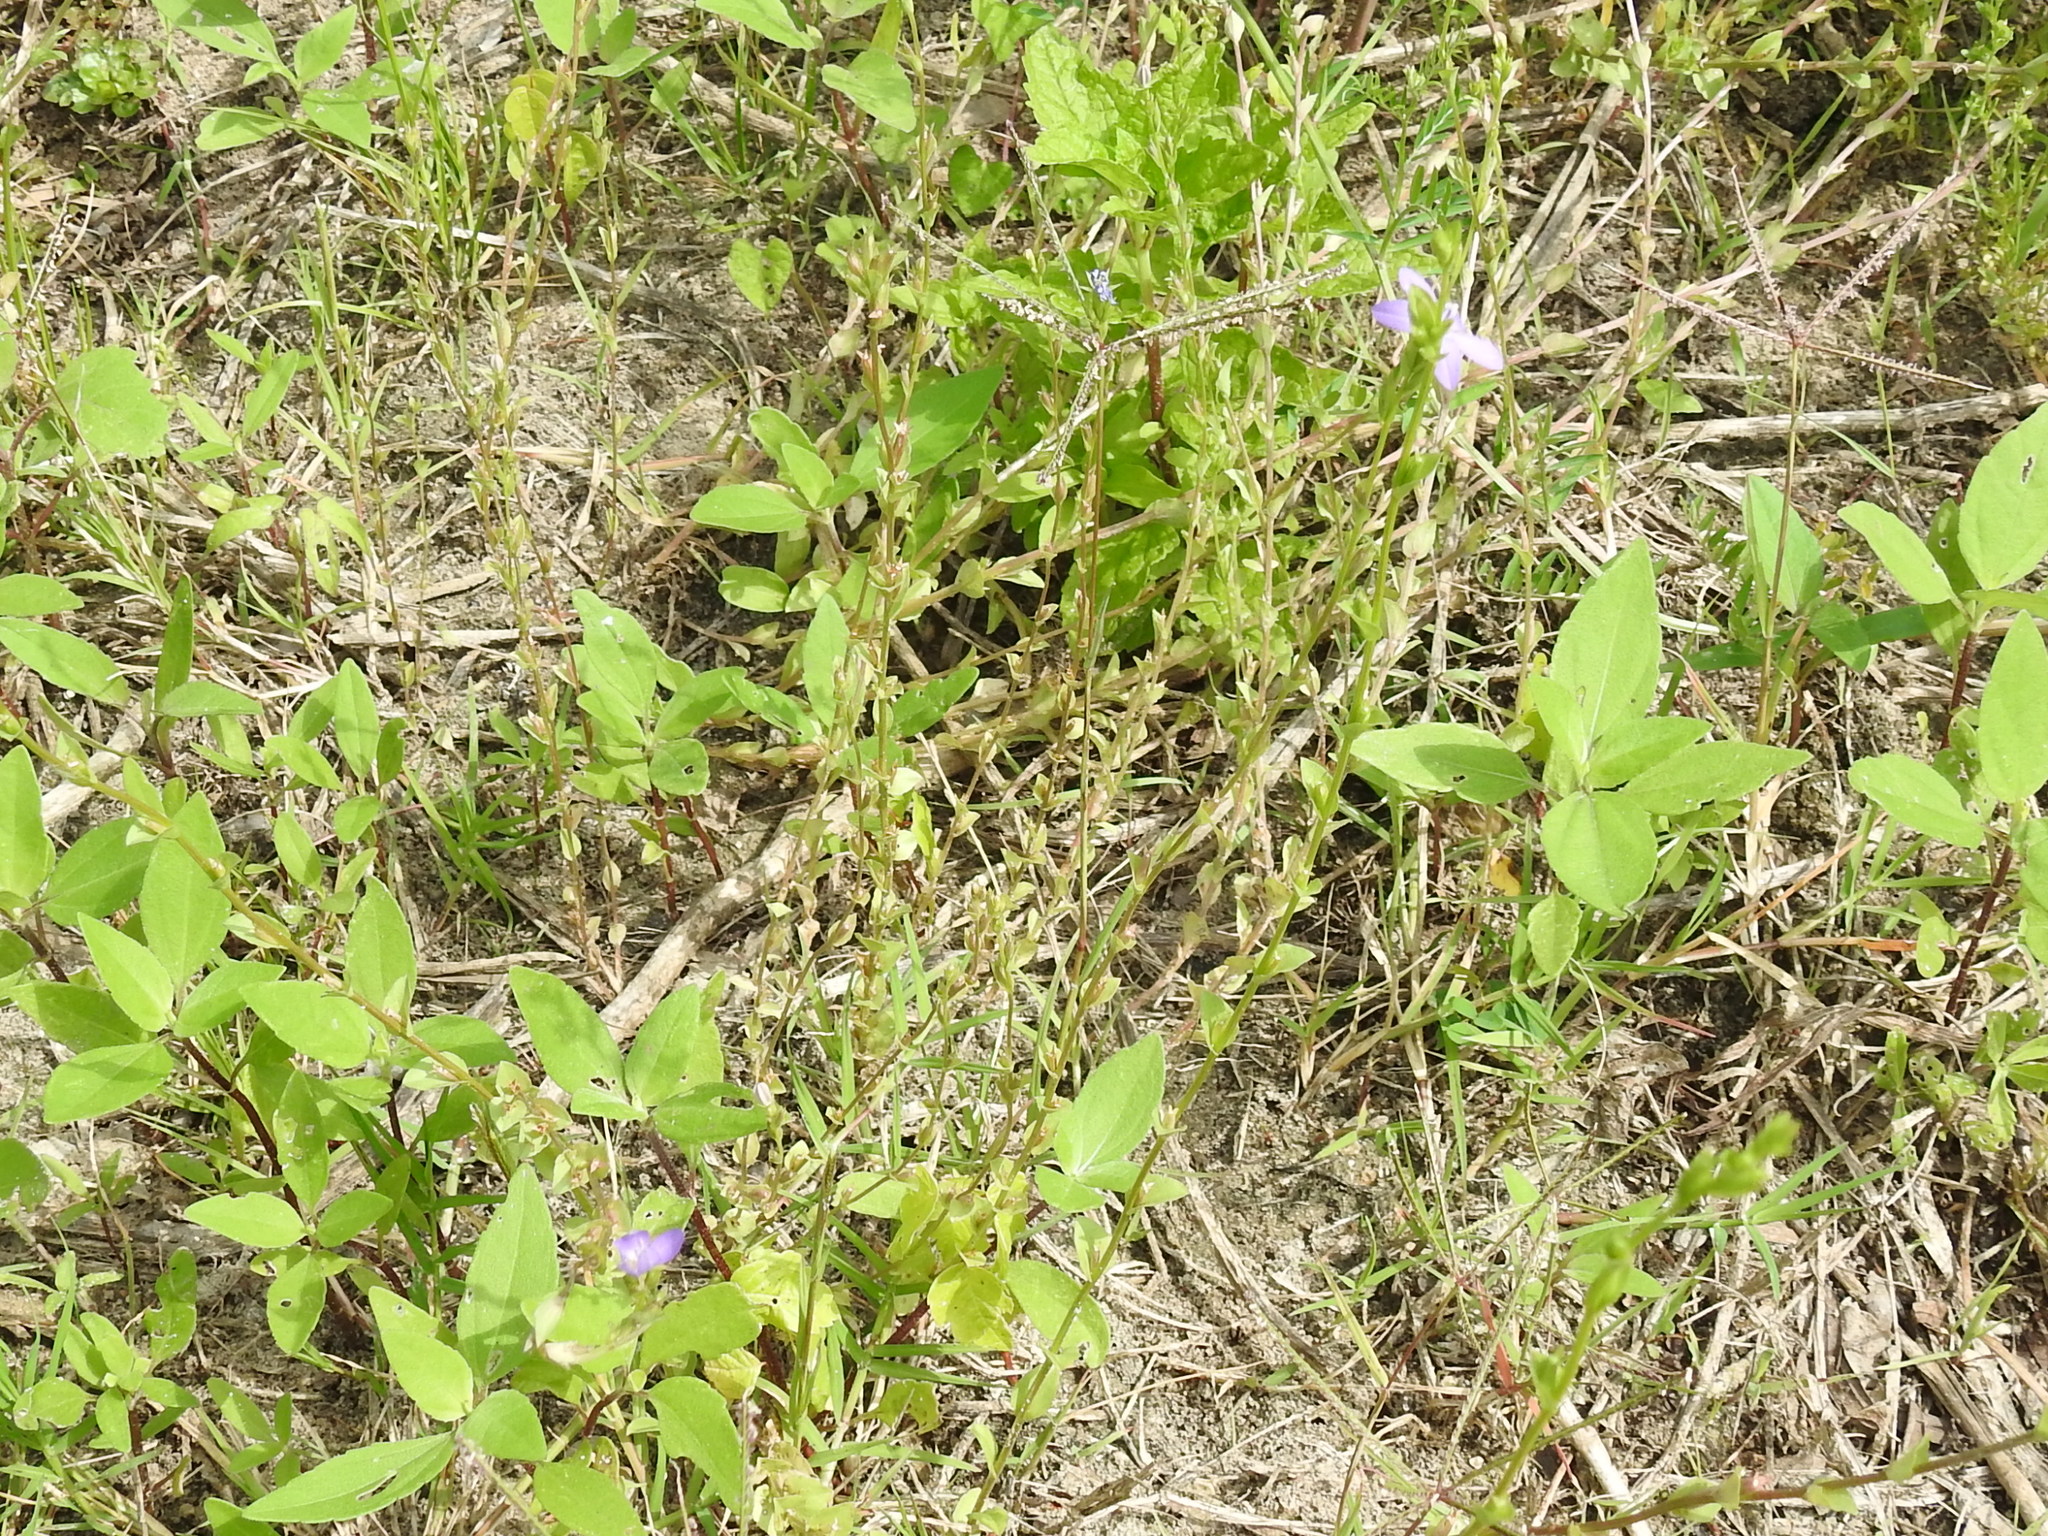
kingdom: Plantae
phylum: Tracheophyta
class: Magnoliopsida
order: Asterales
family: Campanulaceae
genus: Triodanis
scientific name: Triodanis biflora
